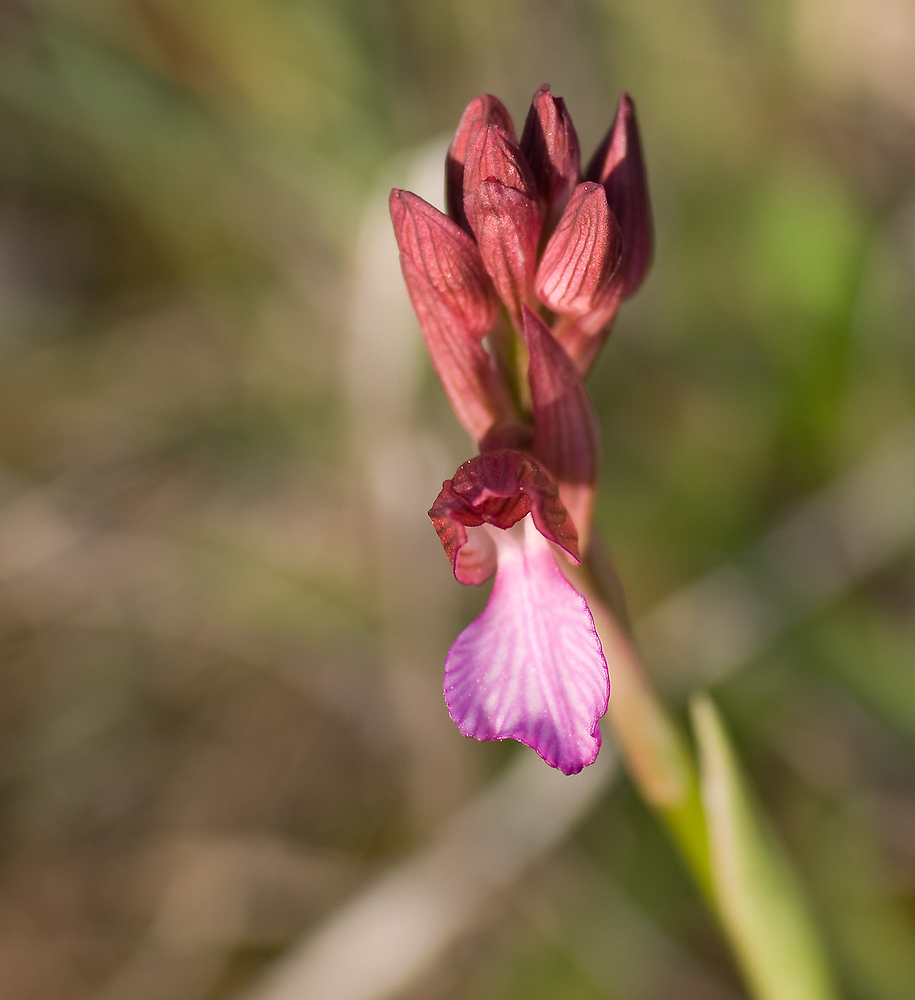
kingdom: Plantae
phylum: Tracheophyta
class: Liliopsida
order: Asparagales
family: Orchidaceae
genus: Anacamptis
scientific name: Anacamptis papilionacea
